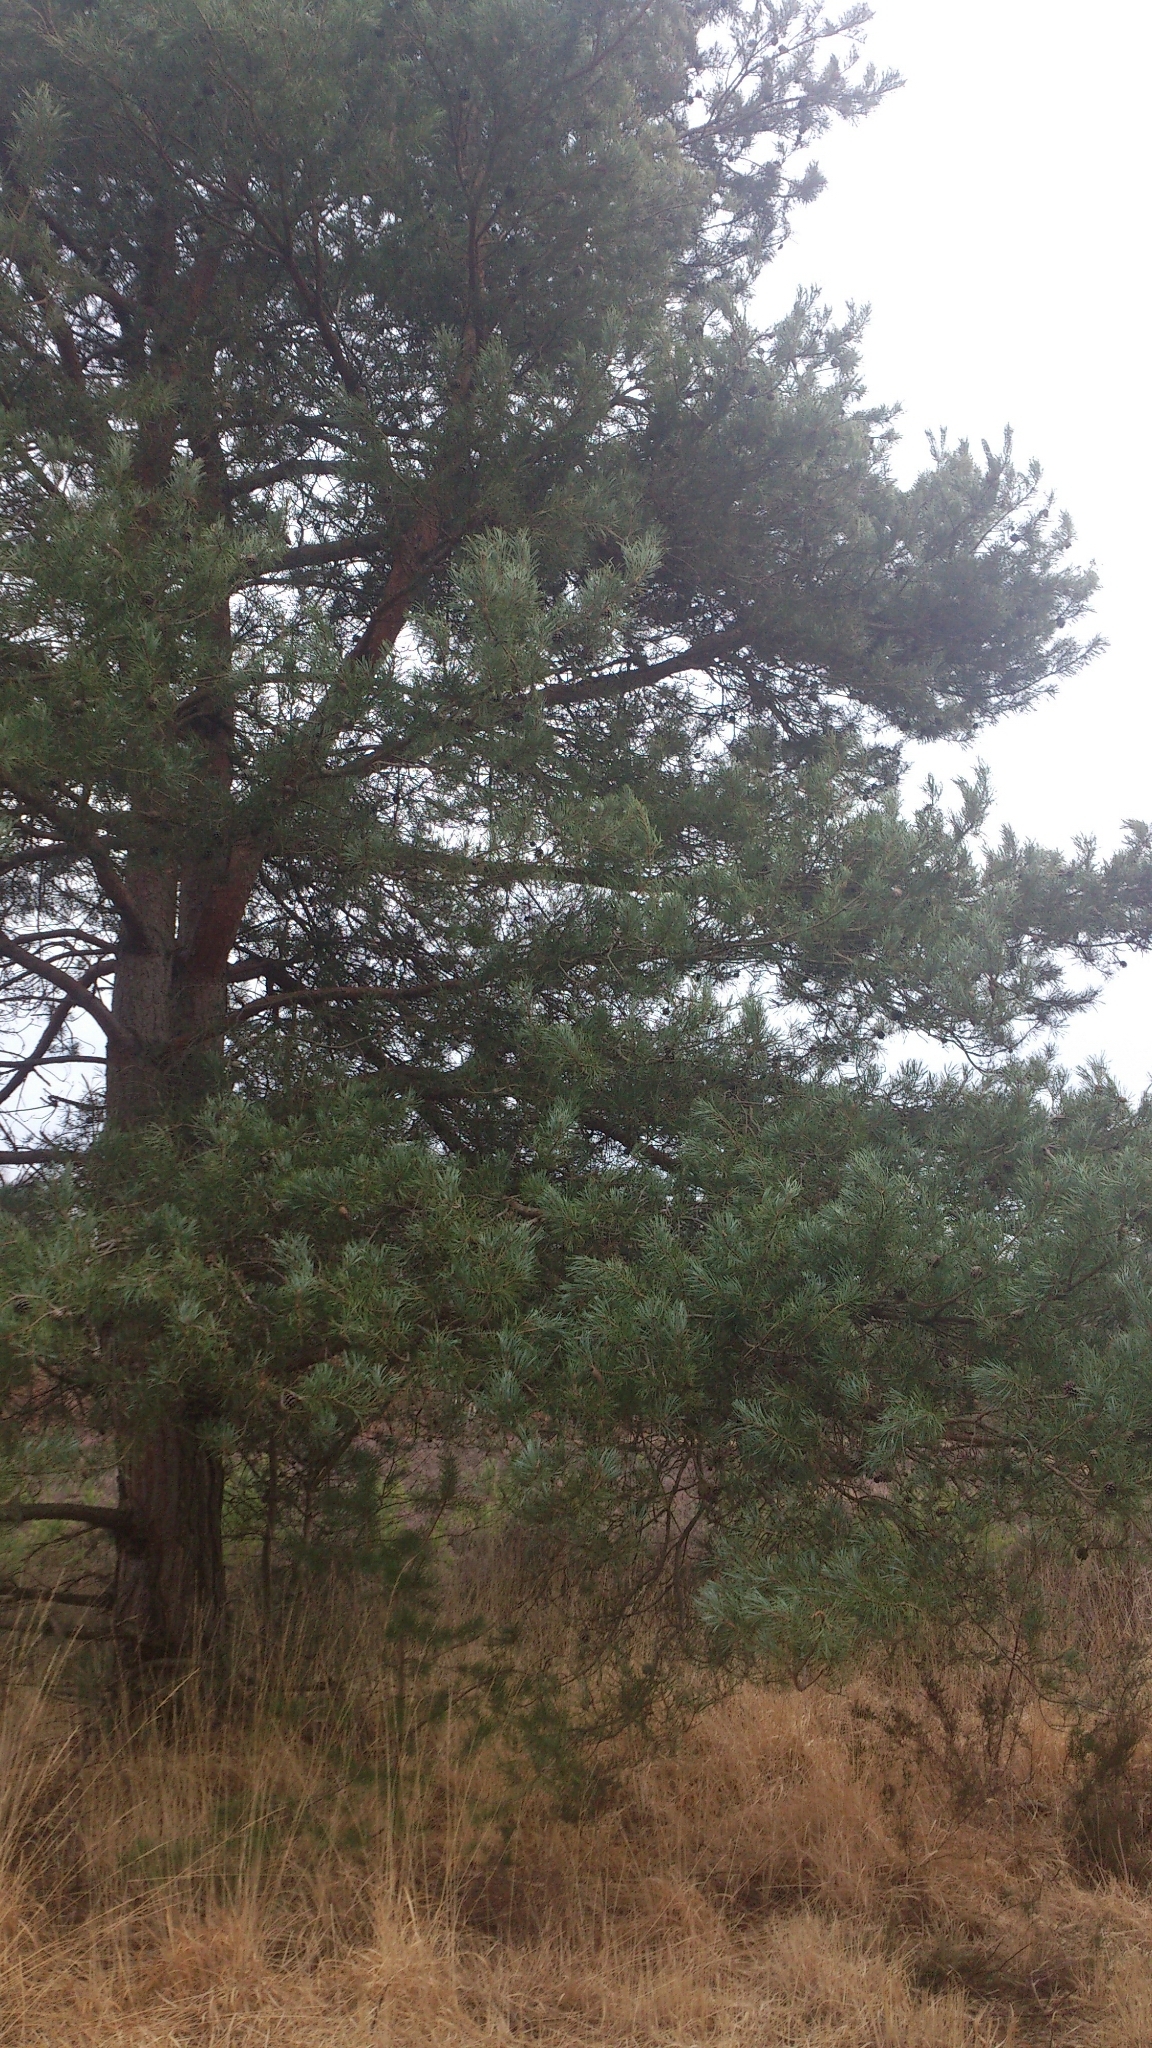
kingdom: Plantae
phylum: Tracheophyta
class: Pinopsida
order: Pinales
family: Pinaceae
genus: Pinus
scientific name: Pinus sylvestris
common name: Scots pine
